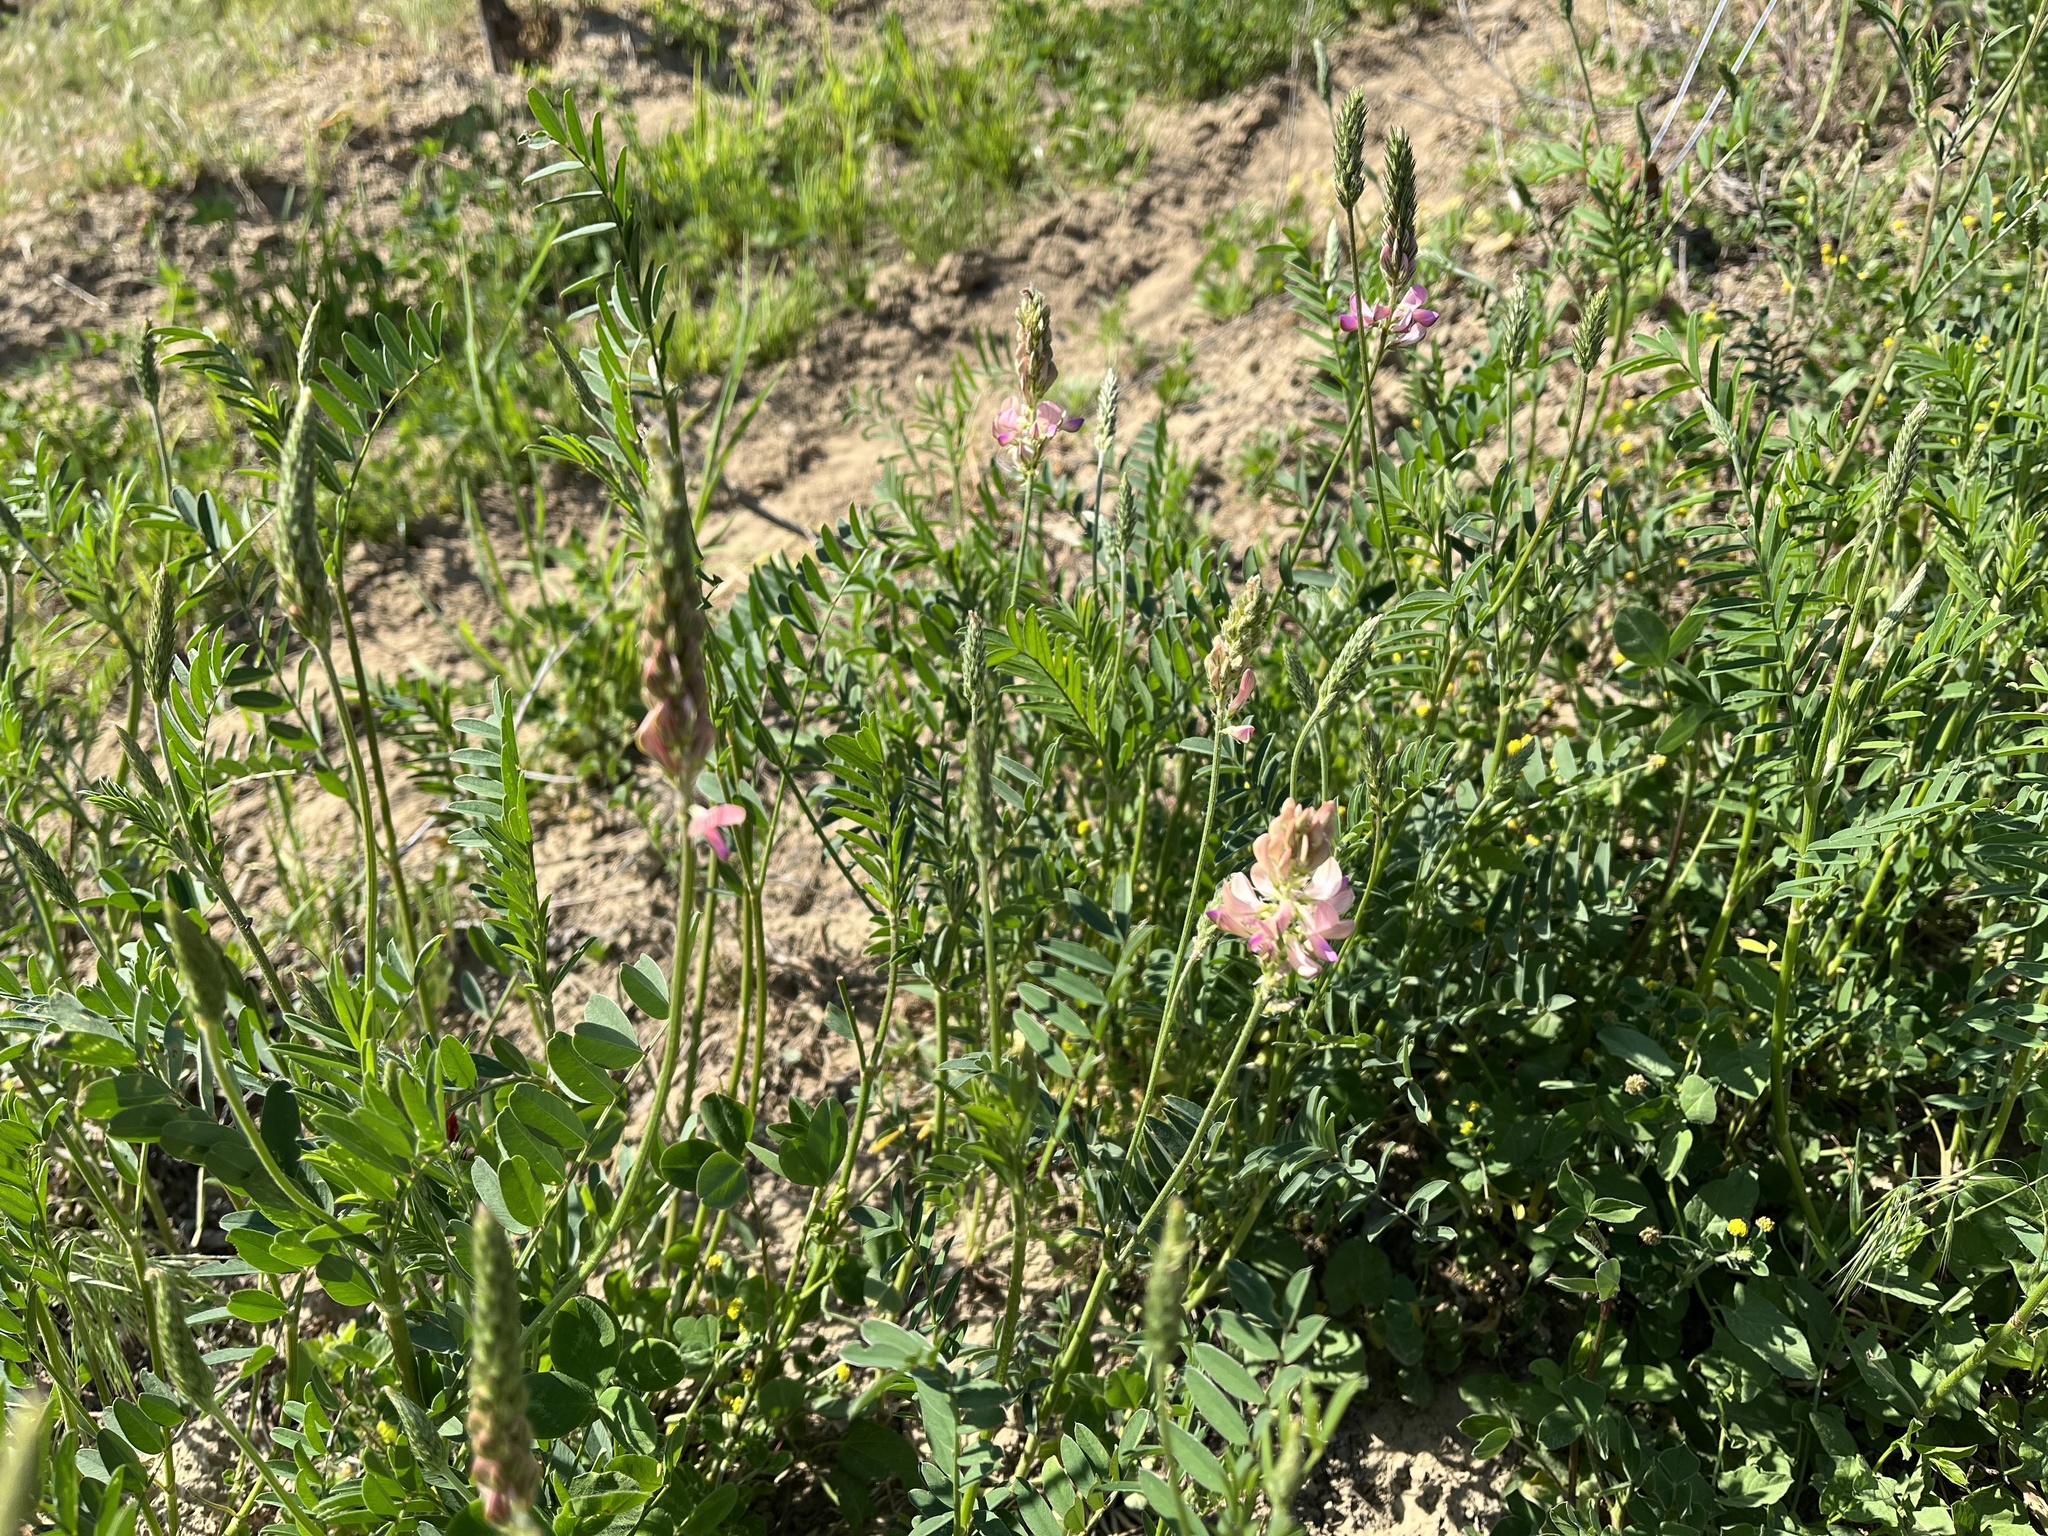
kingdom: Plantae
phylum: Tracheophyta
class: Magnoliopsida
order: Fabales
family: Fabaceae
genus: Onobrychis
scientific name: Onobrychis viciifolia
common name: Sainfoin
